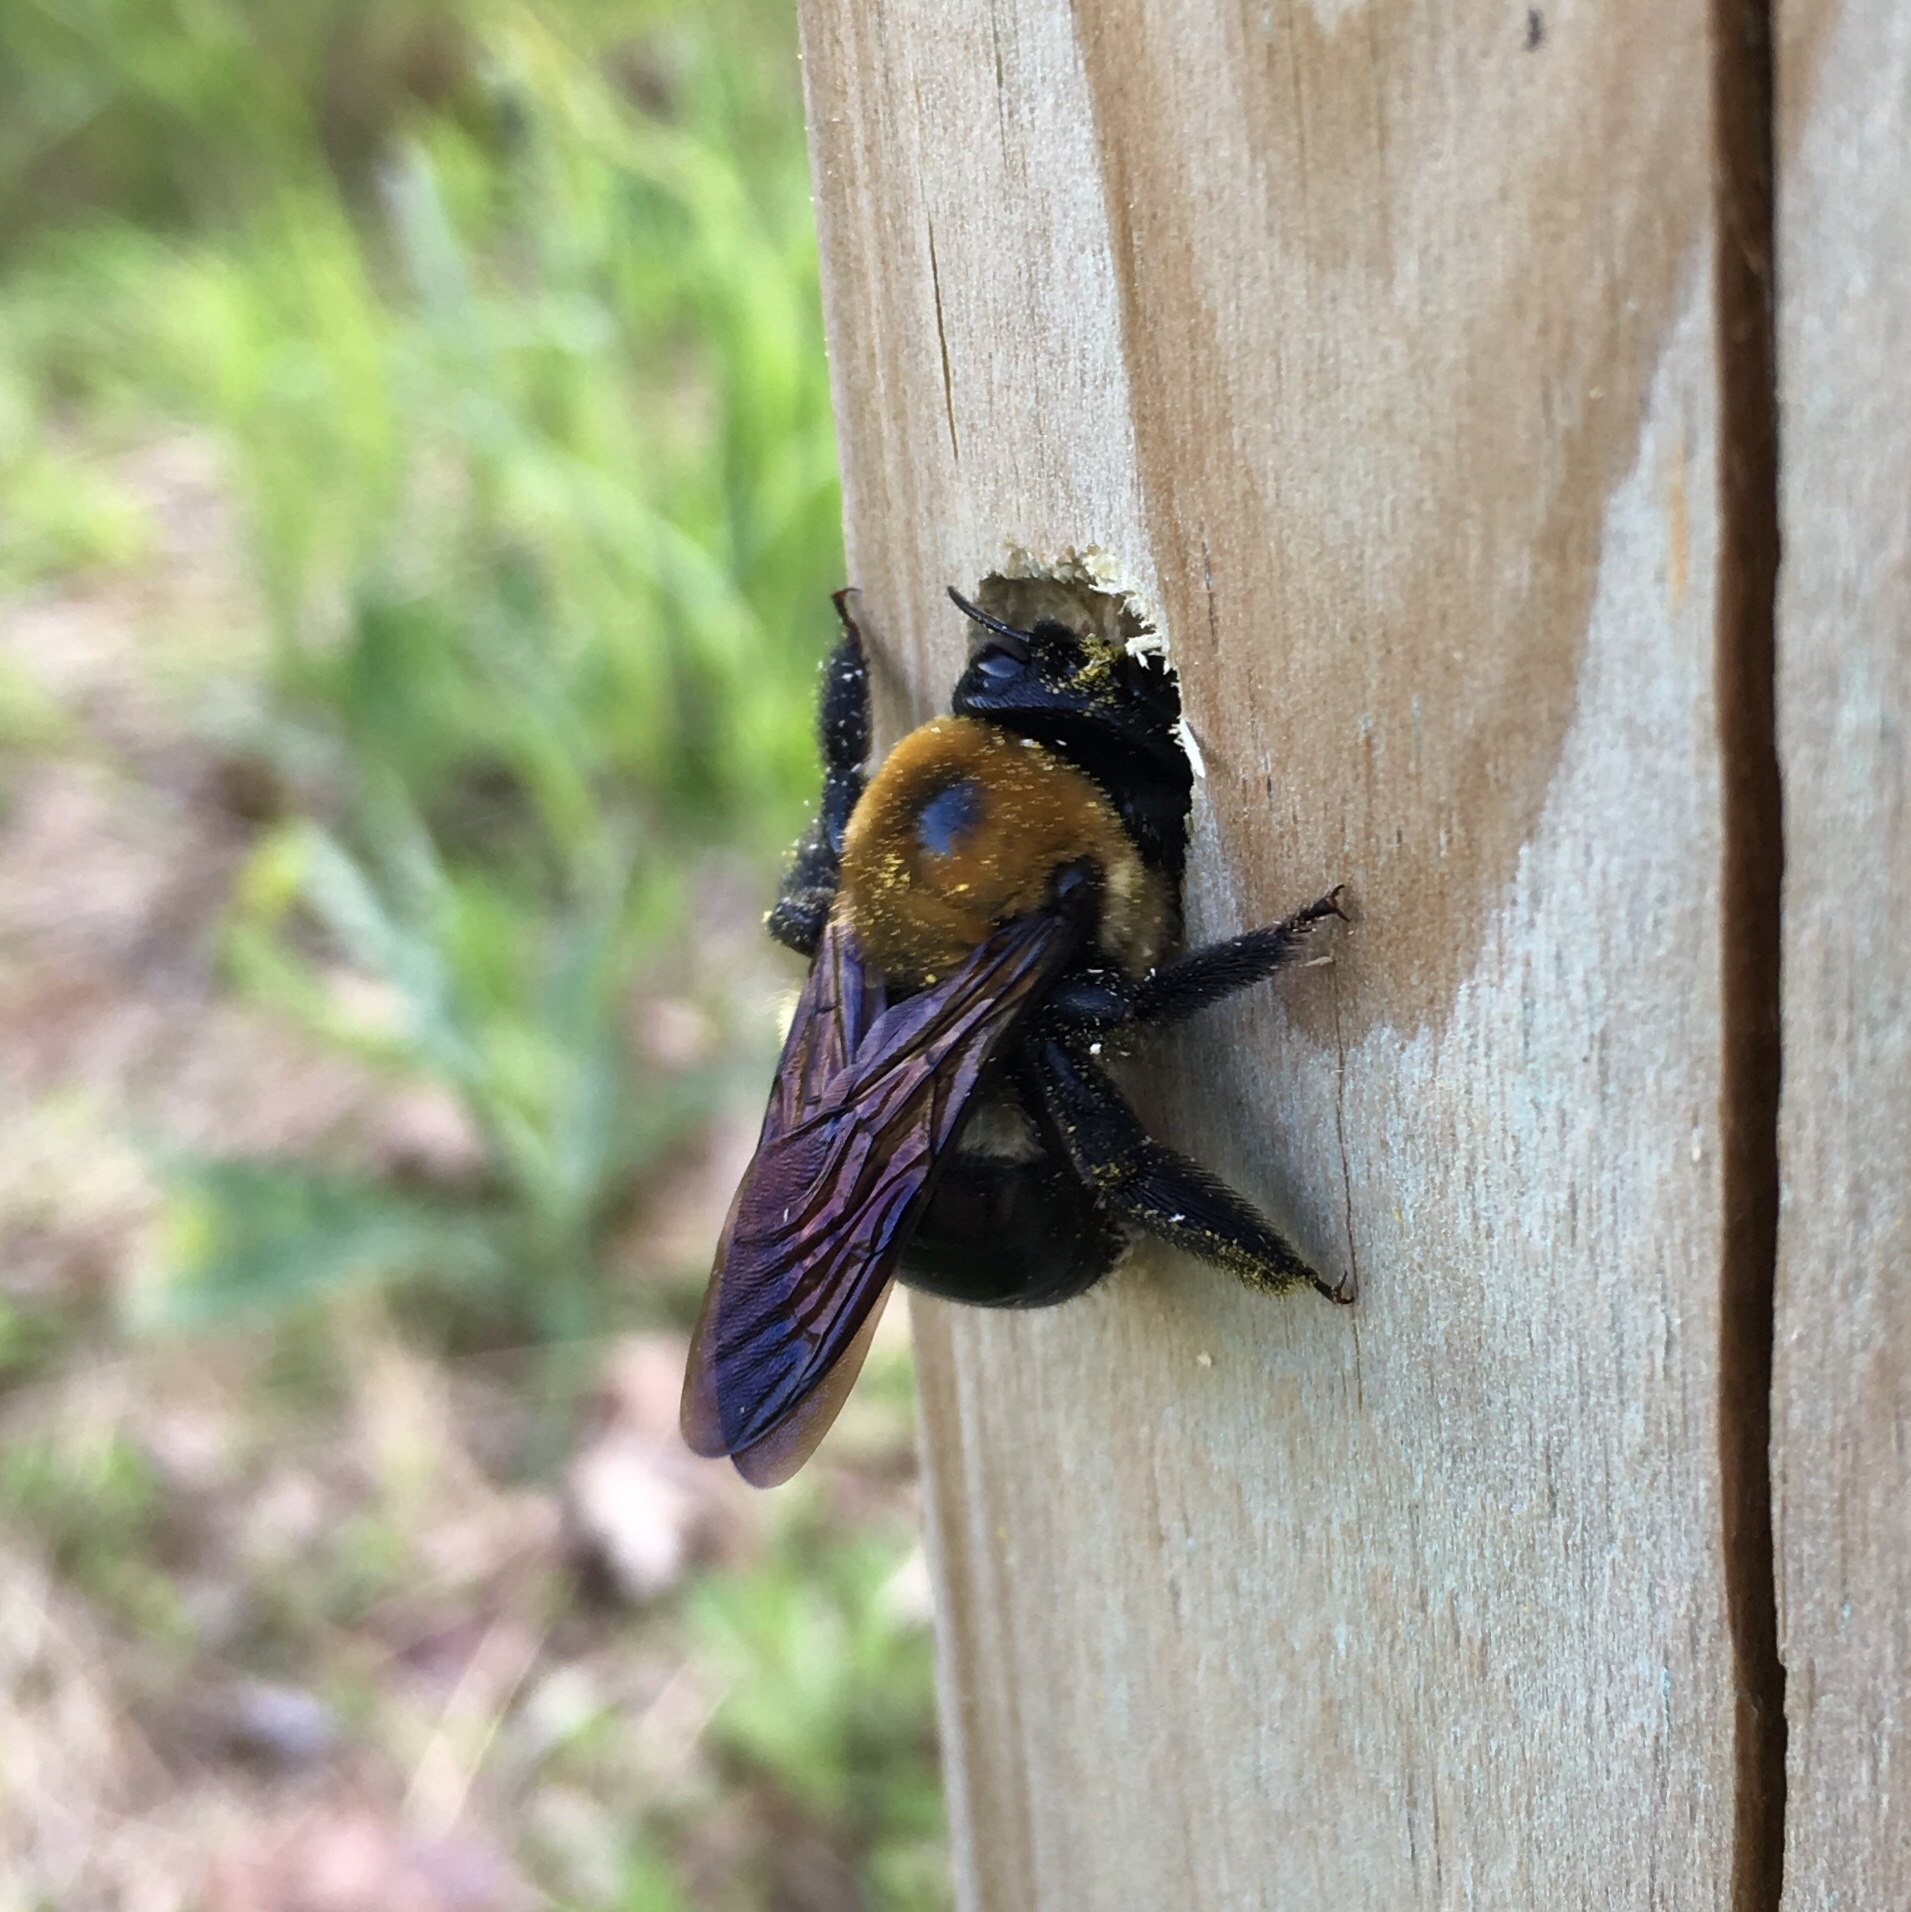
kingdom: Animalia
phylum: Arthropoda
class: Insecta
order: Hymenoptera
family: Apidae
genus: Xylocopa
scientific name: Xylocopa virginica
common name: Carpenter bee
